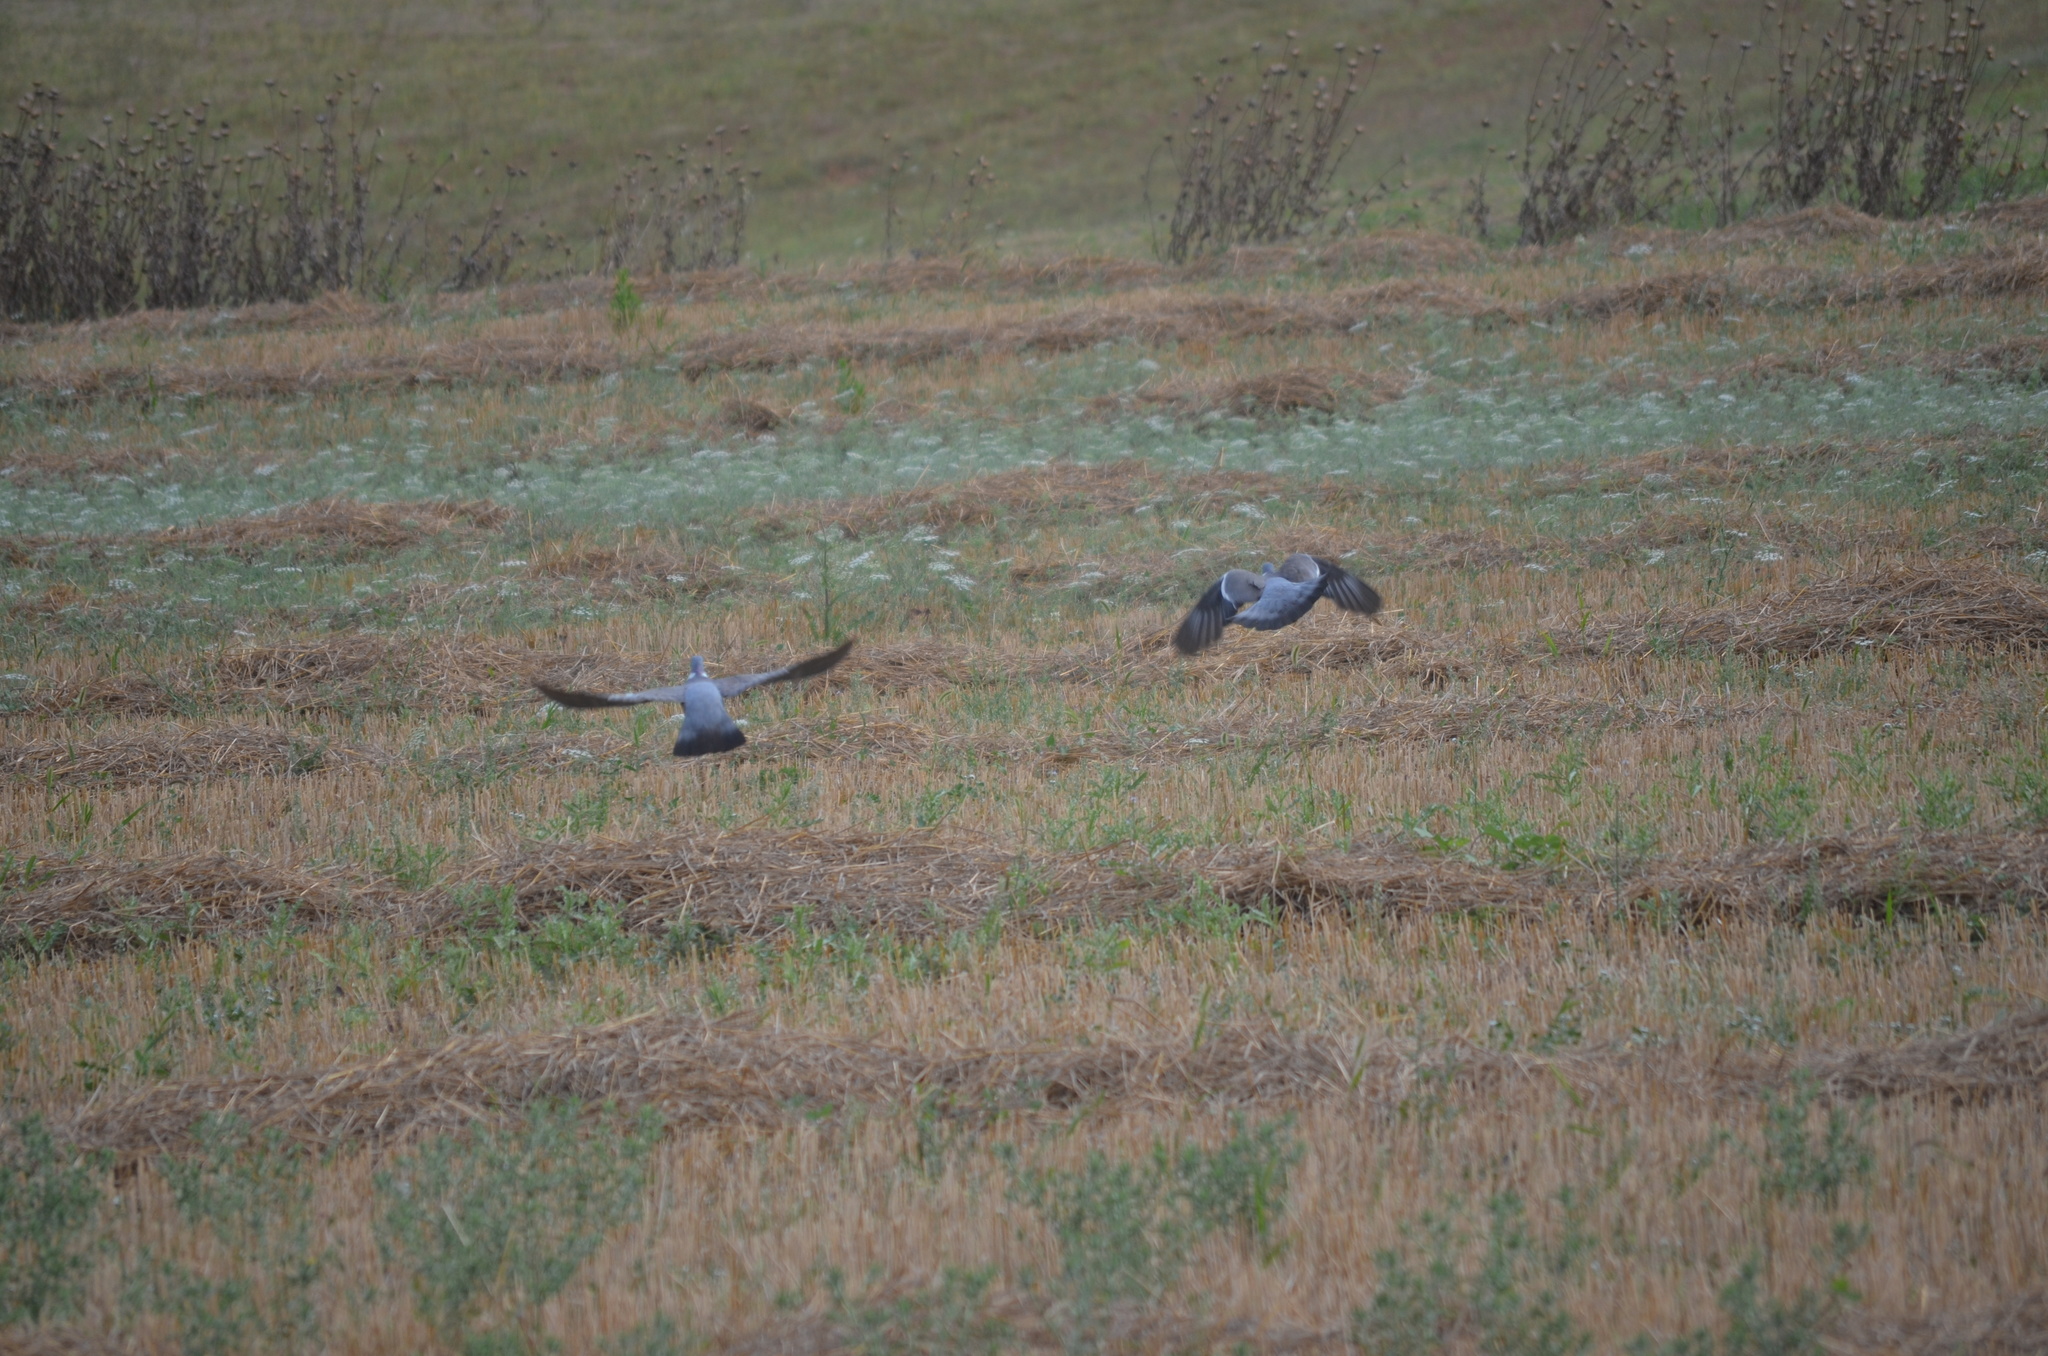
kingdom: Animalia
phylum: Chordata
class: Aves
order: Columbiformes
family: Columbidae
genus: Columba
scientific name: Columba palumbus
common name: Common wood pigeon
